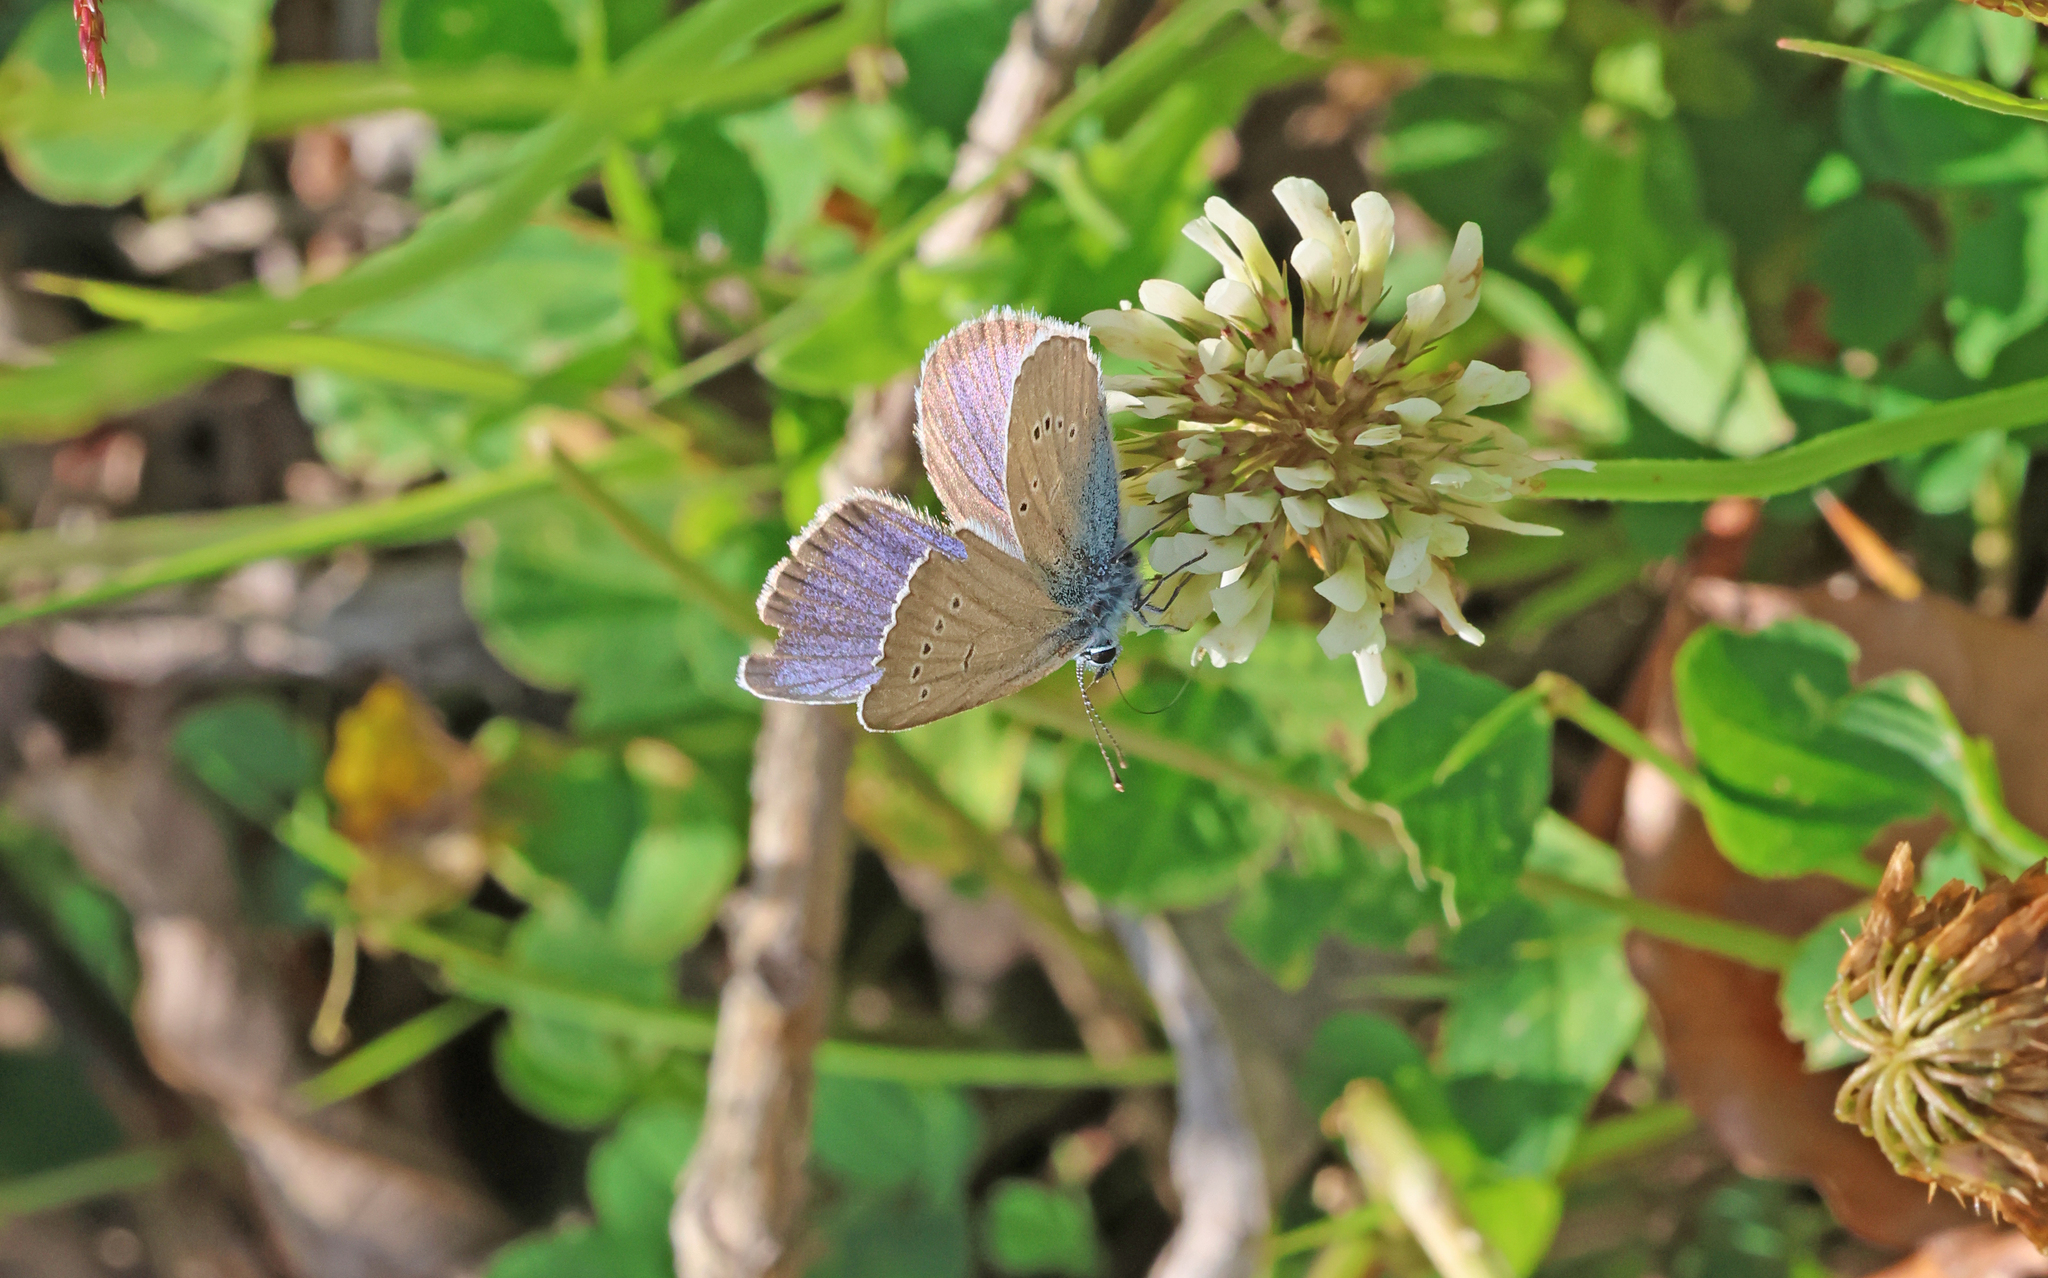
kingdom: Animalia
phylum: Arthropoda
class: Insecta
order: Lepidoptera
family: Lycaenidae
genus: Cyaniris
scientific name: Cyaniris semiargus
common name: Mazarine blue
